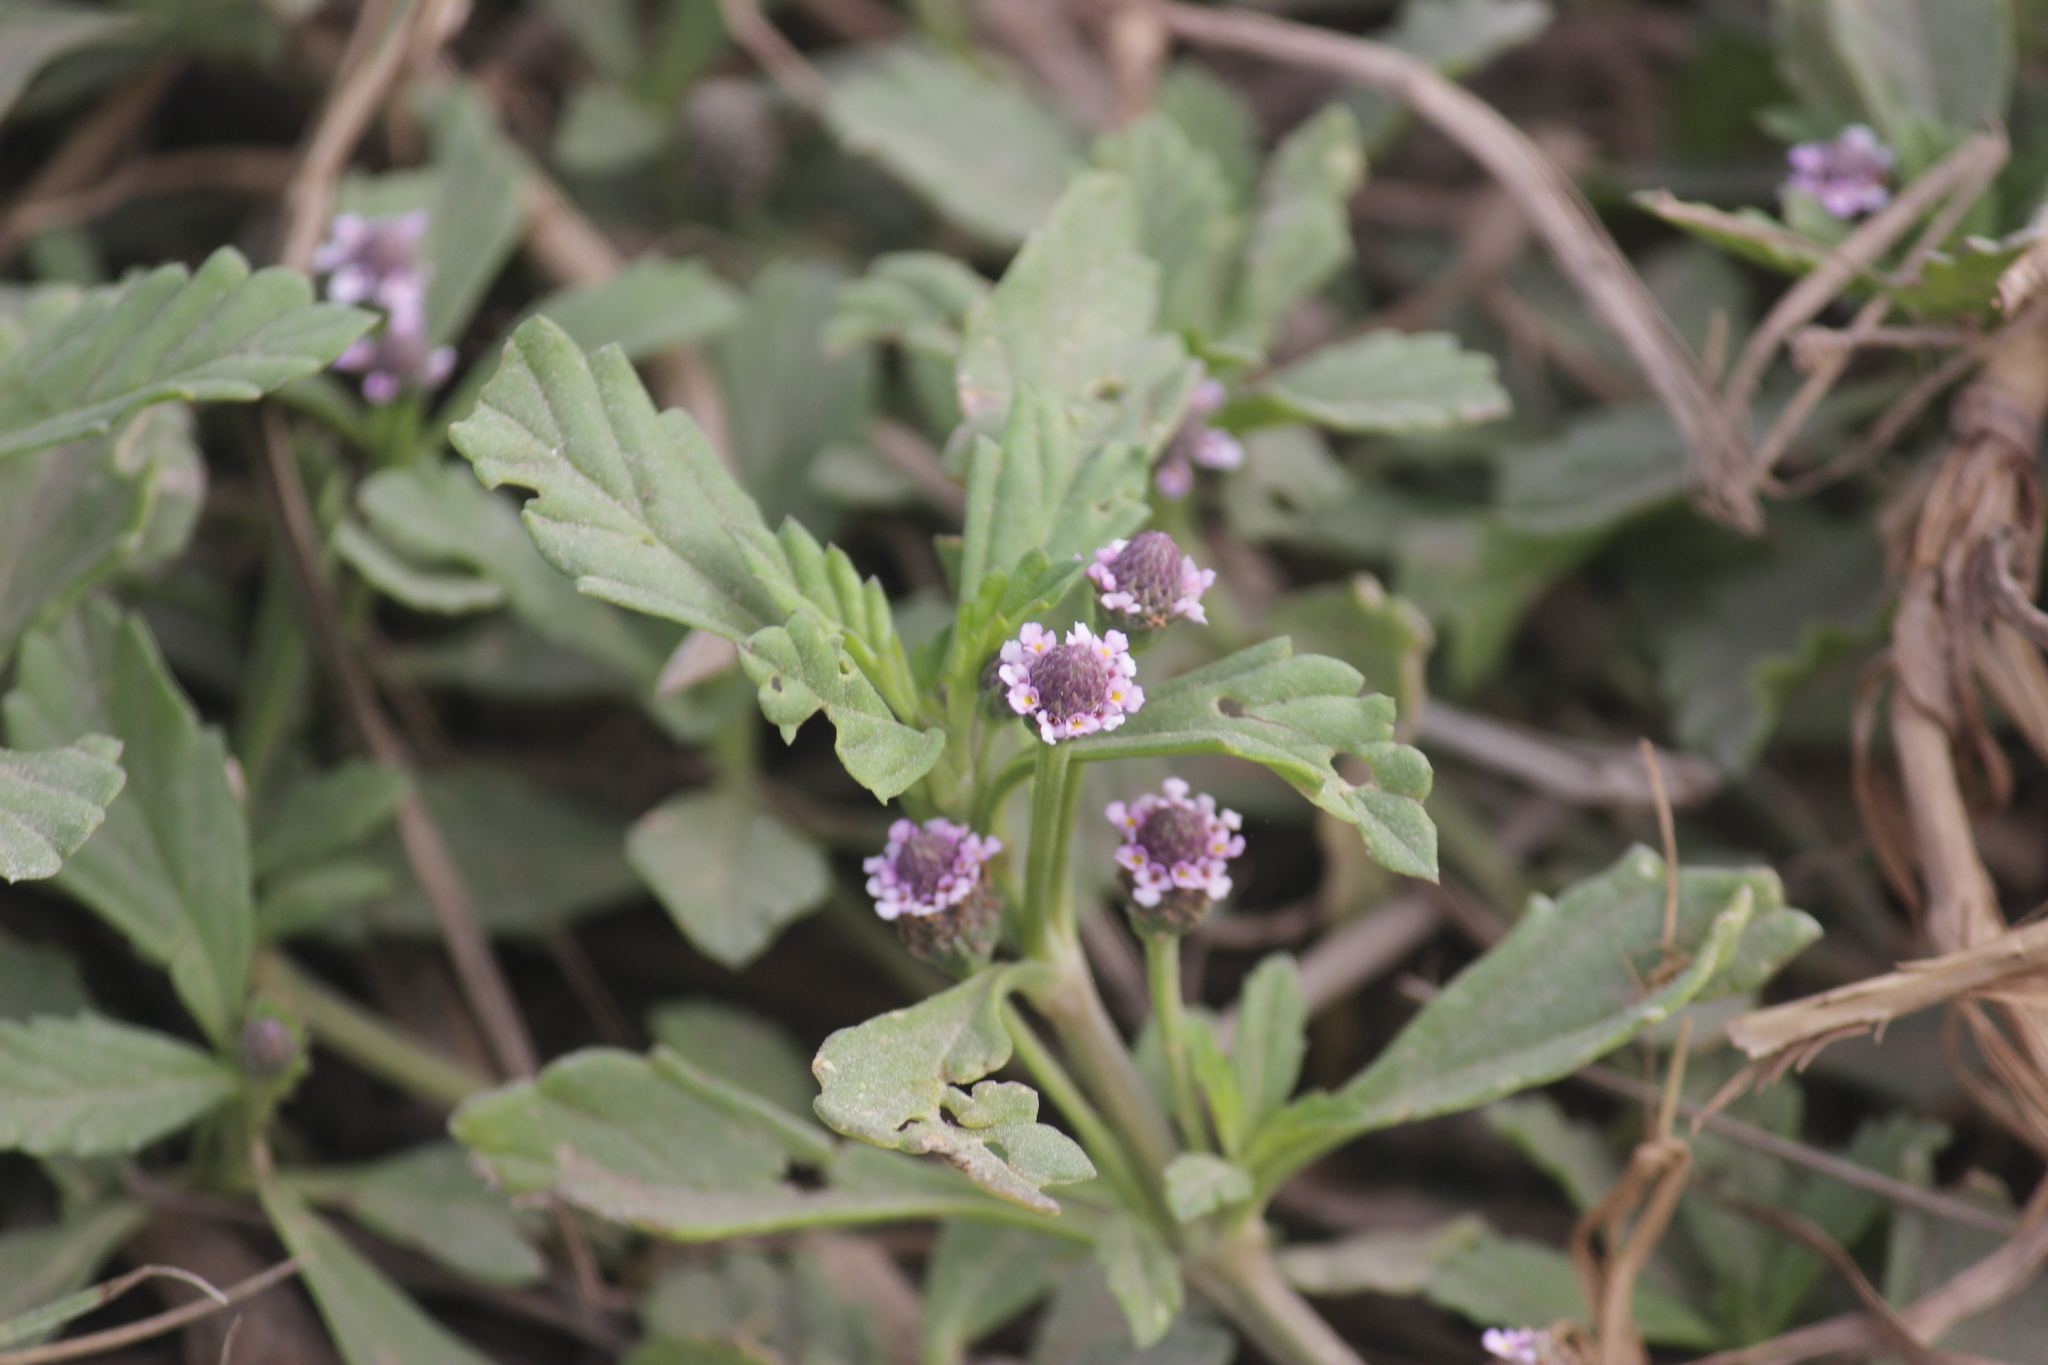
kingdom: Plantae
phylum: Tracheophyta
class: Magnoliopsida
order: Lamiales
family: Verbenaceae
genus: Phyla
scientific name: Phyla nodiflora
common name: Frogfruit
